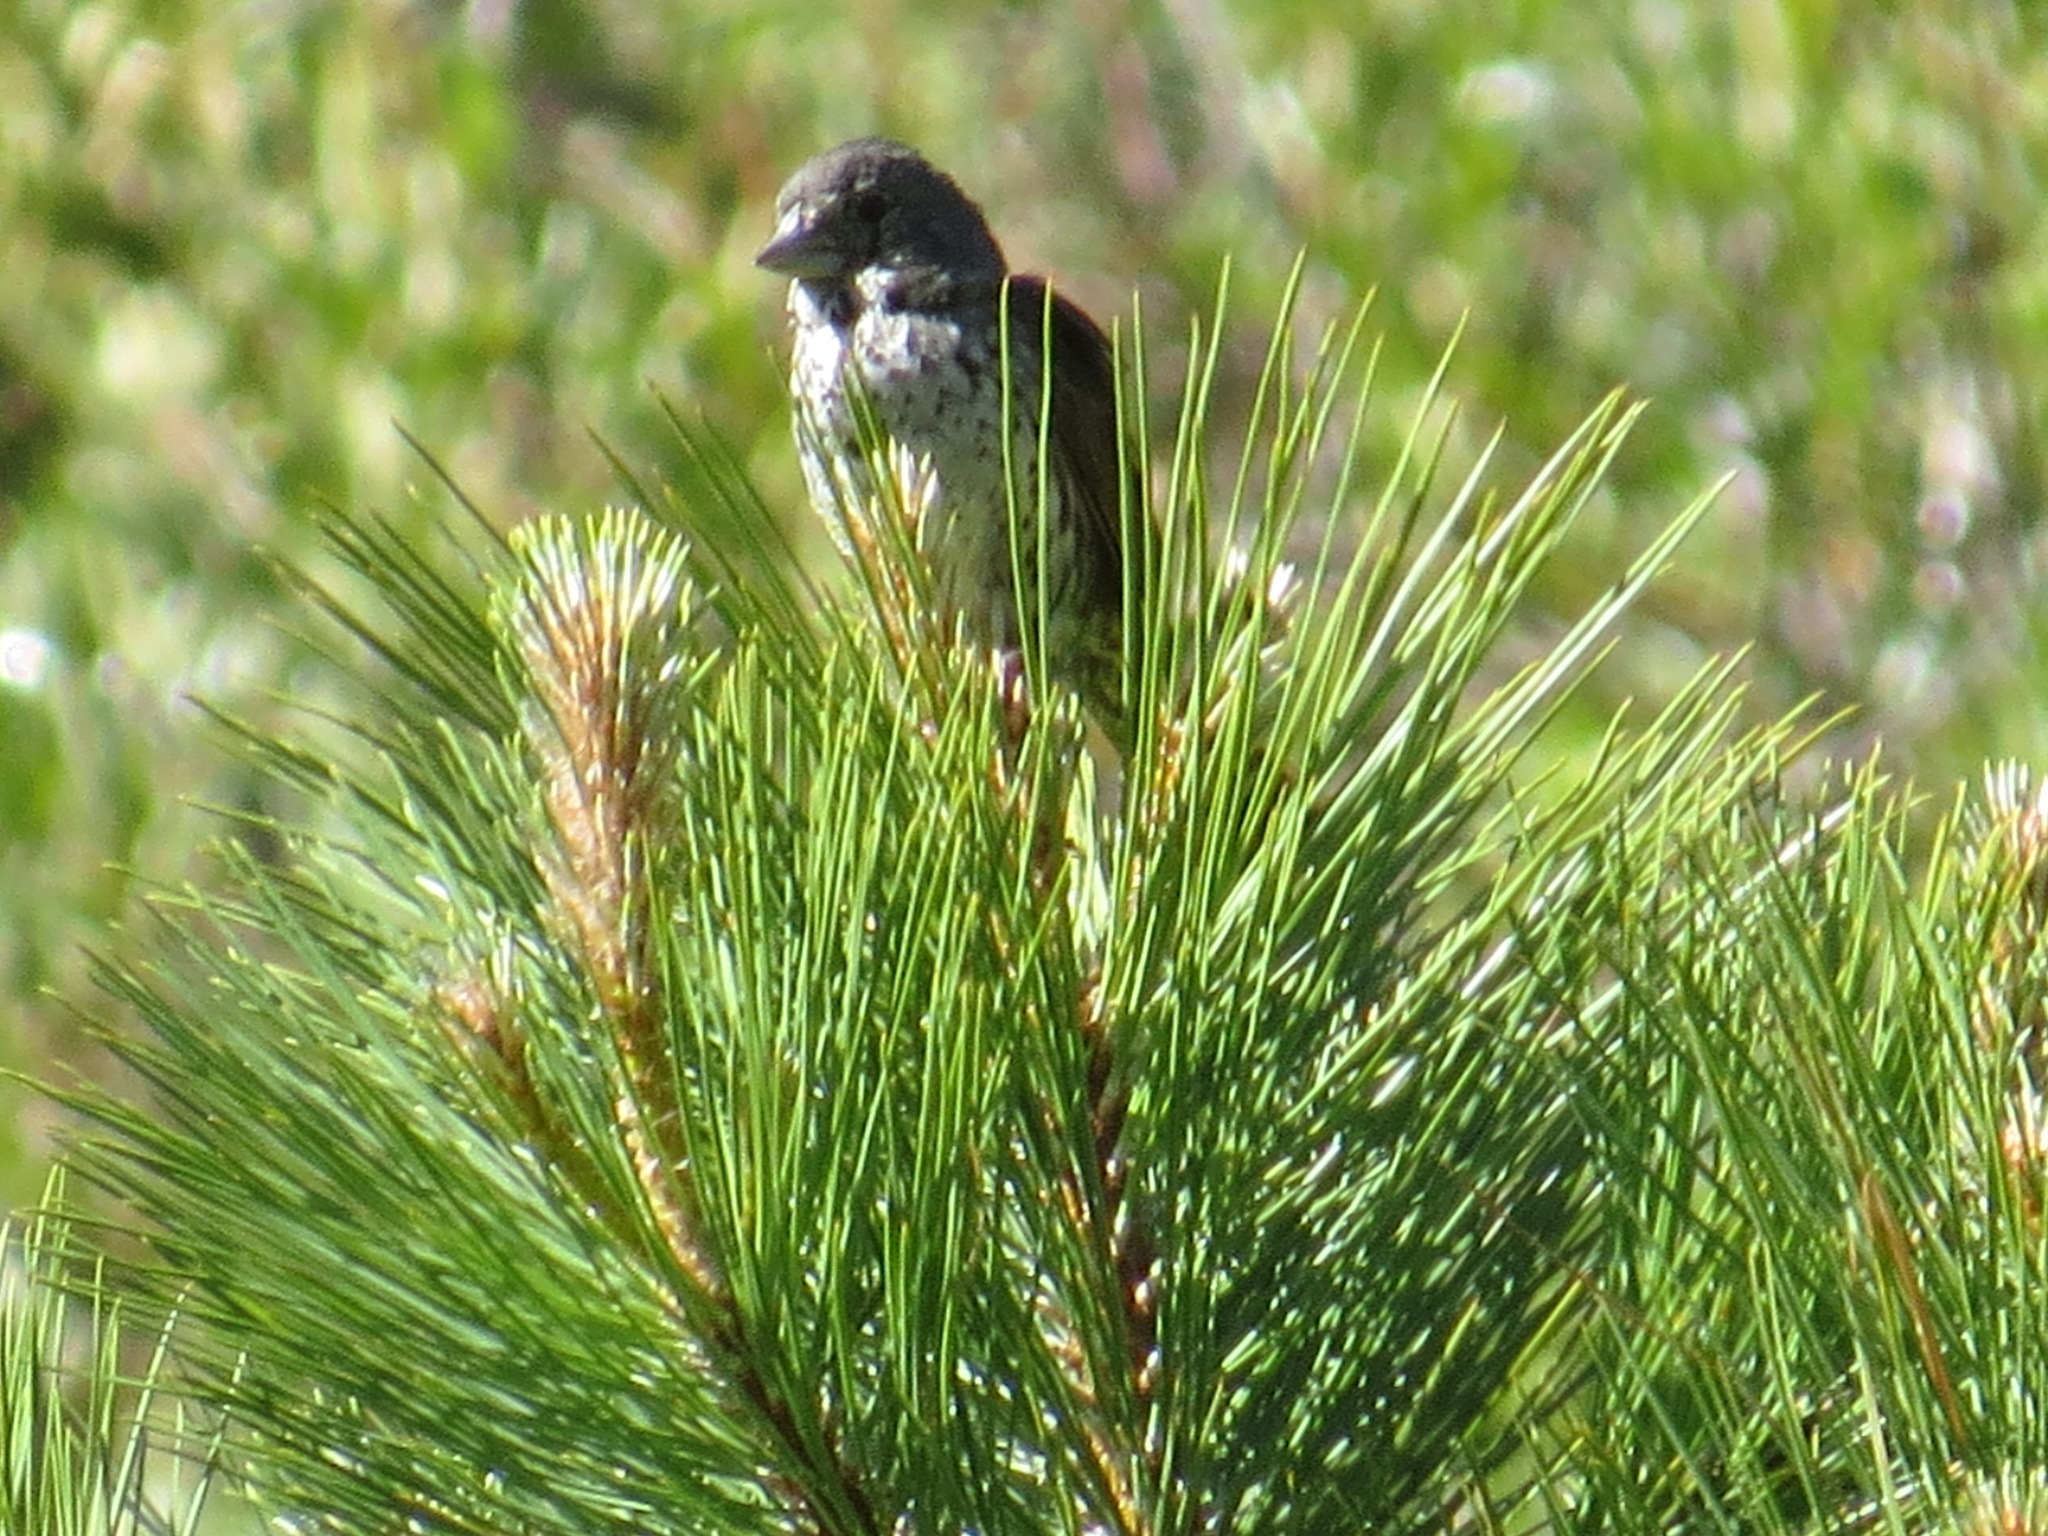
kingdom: Animalia
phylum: Chordata
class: Aves
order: Passeriformes
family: Passerellidae
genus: Passerella
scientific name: Passerella iliaca
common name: Fox sparrow
